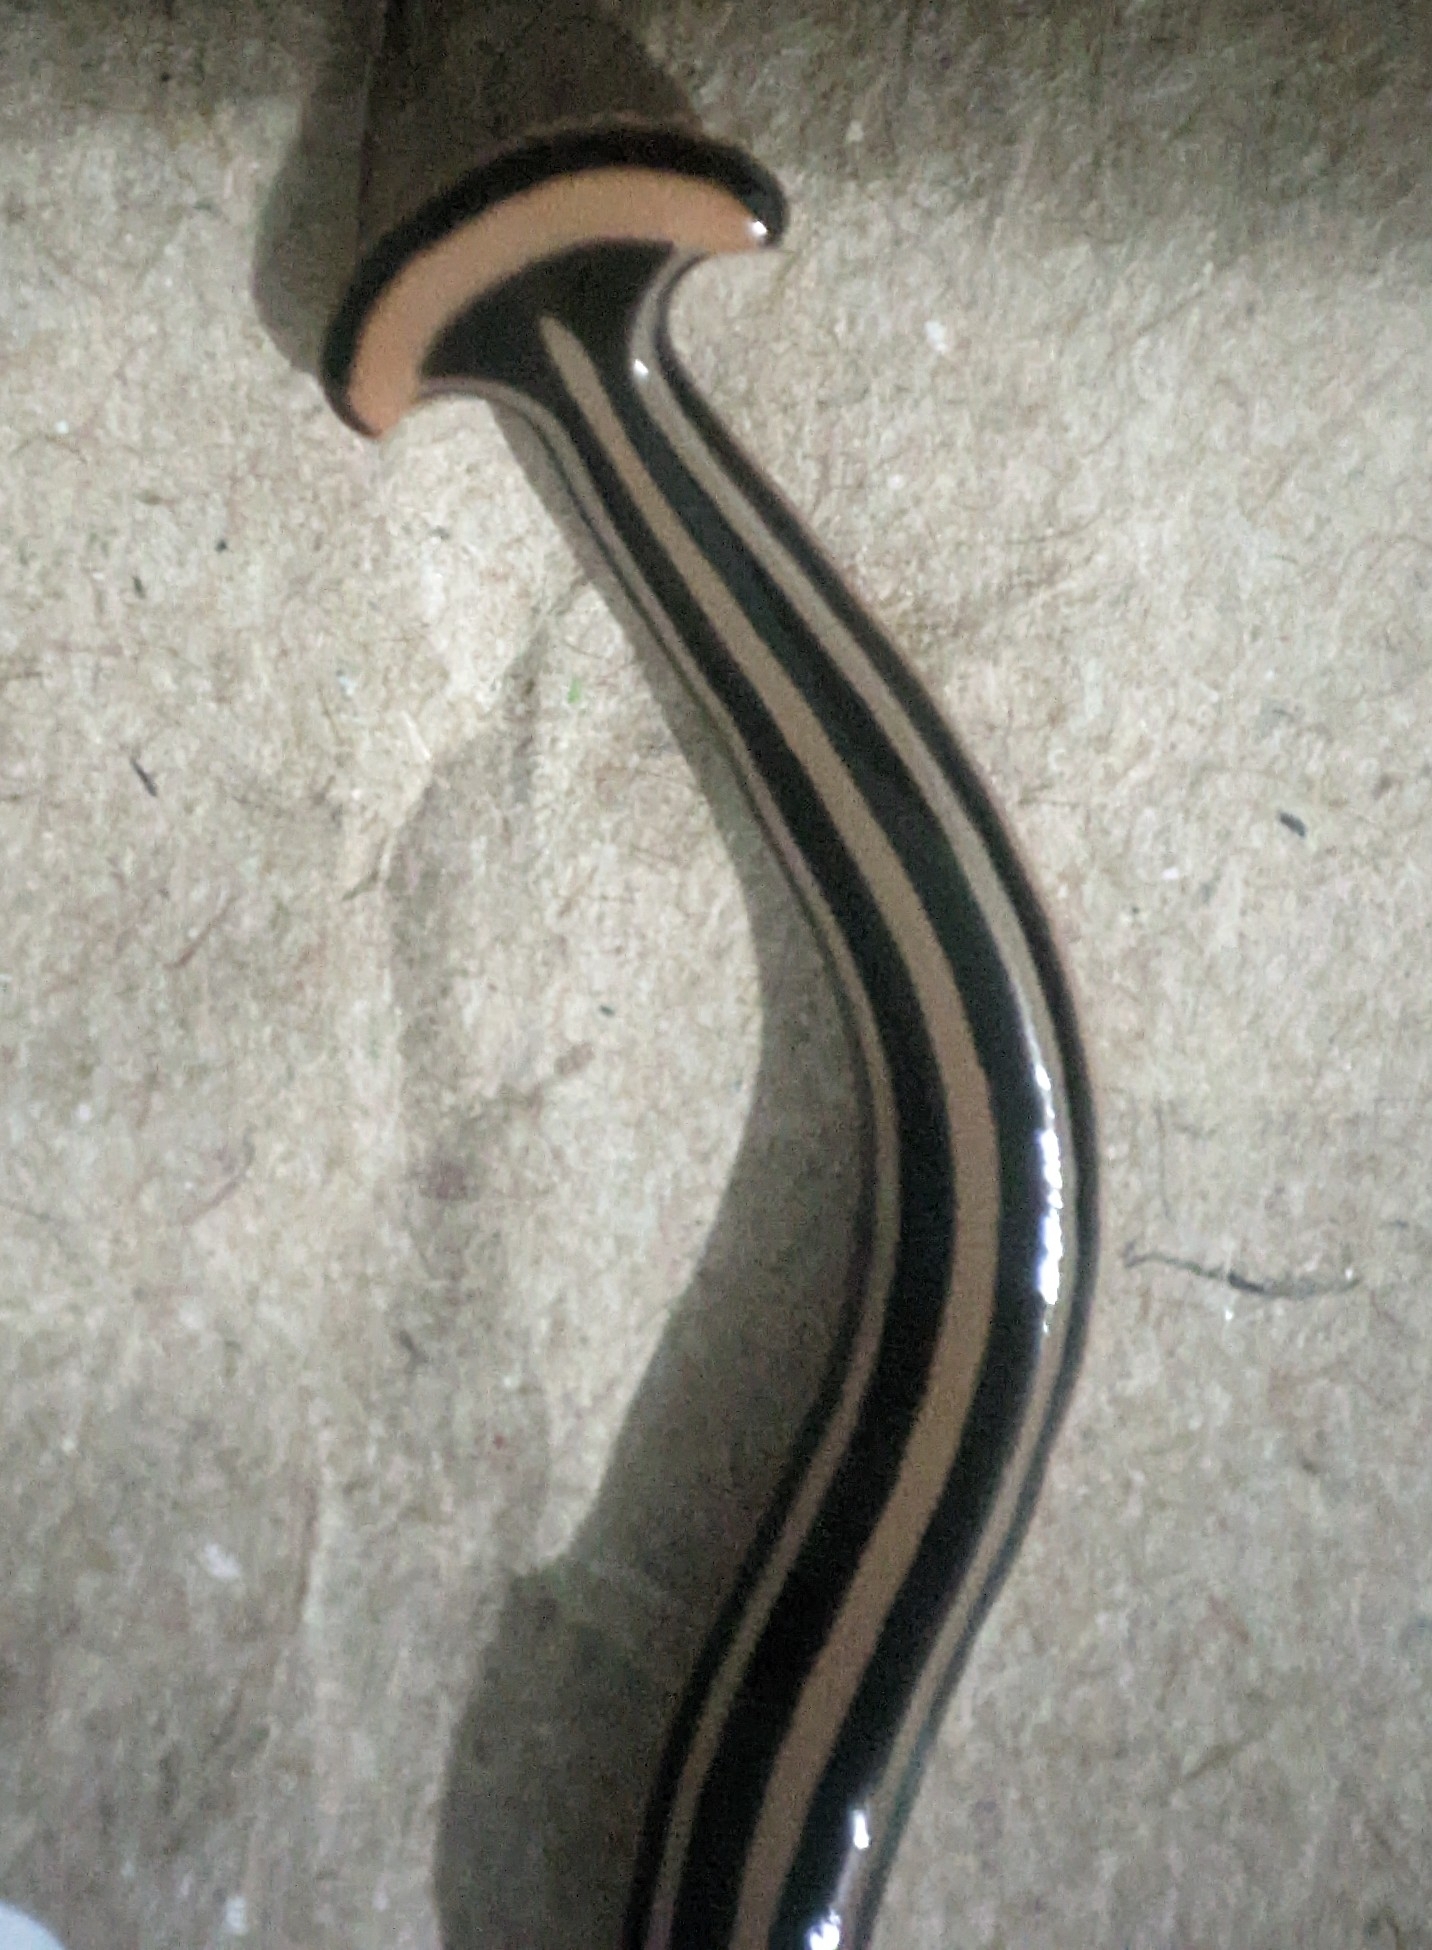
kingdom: Animalia
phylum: Platyhelminthes
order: Tricladida
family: Geoplanidae
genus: Humbertium
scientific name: Humbertium proserpina
